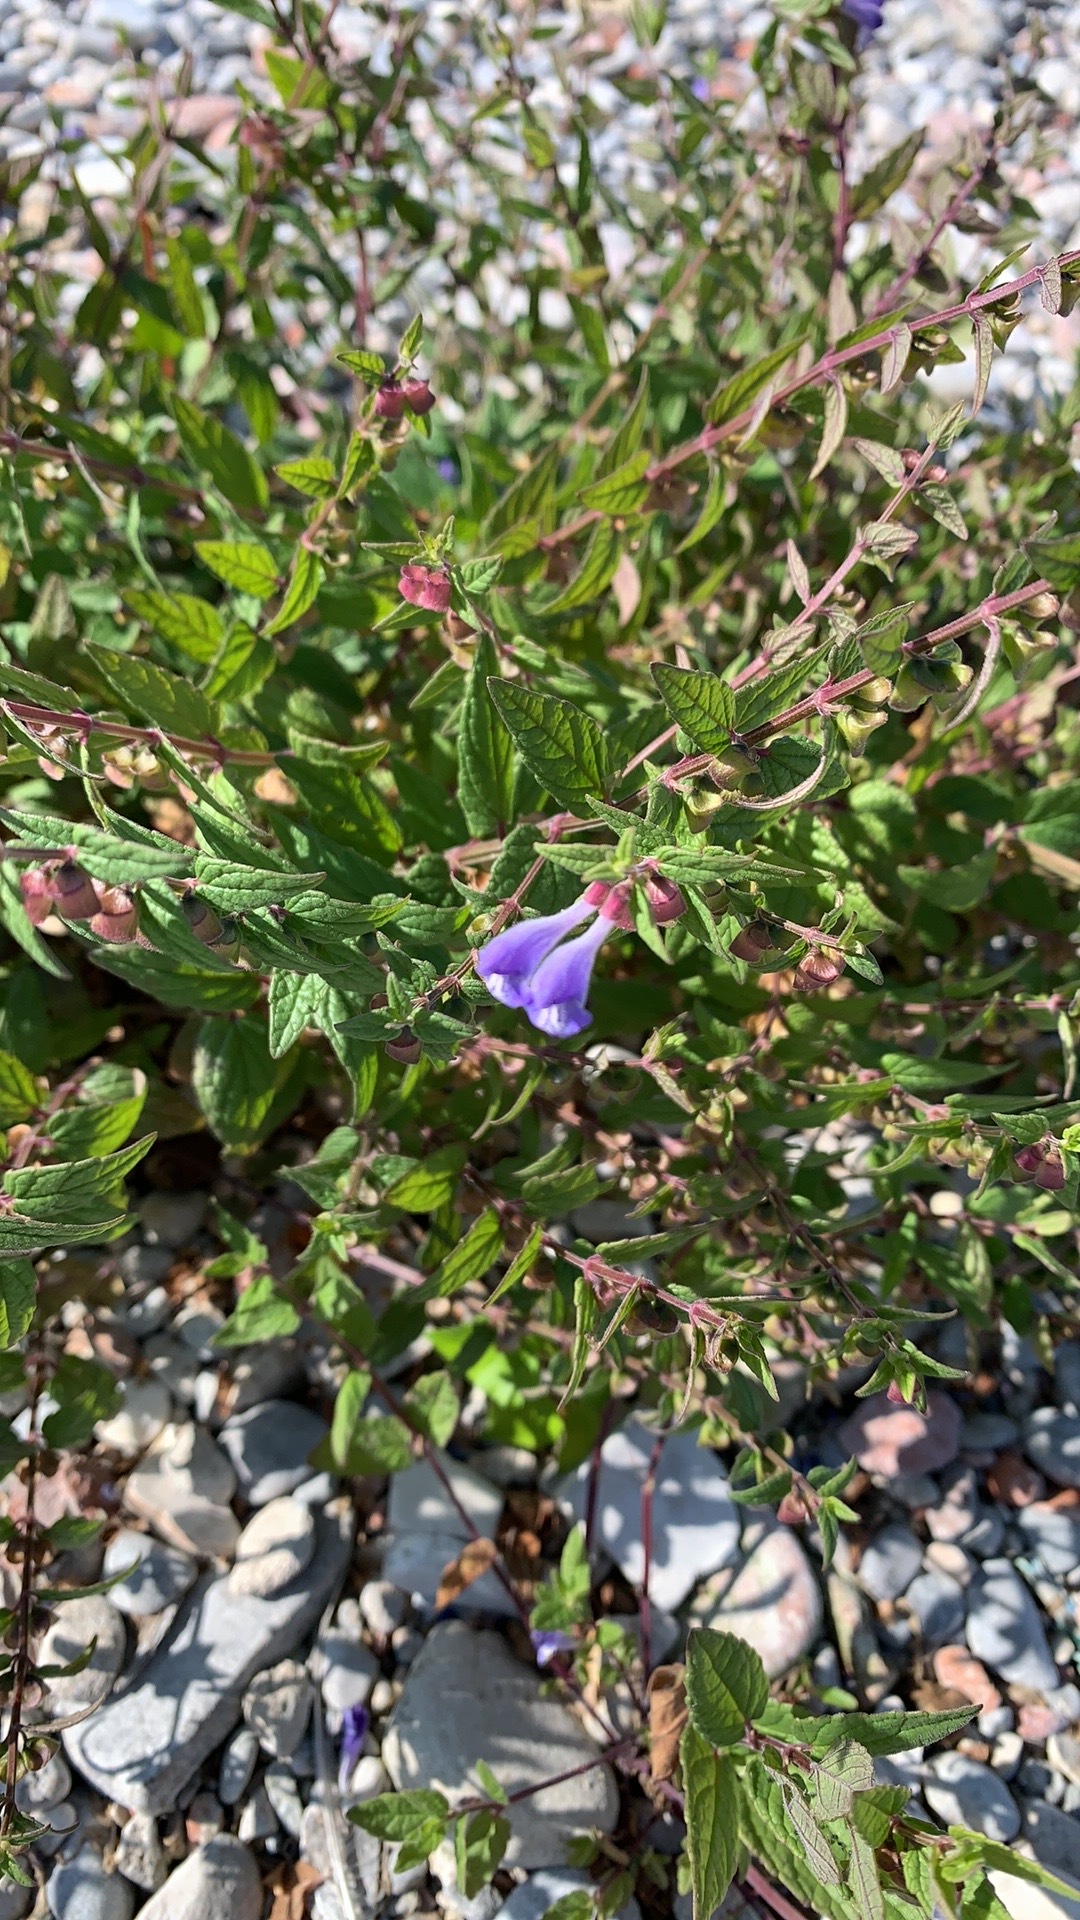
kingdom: Plantae
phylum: Tracheophyta
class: Magnoliopsida
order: Lamiales
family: Lamiaceae
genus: Scutellaria
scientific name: Scutellaria galericulata
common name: Skullcap
